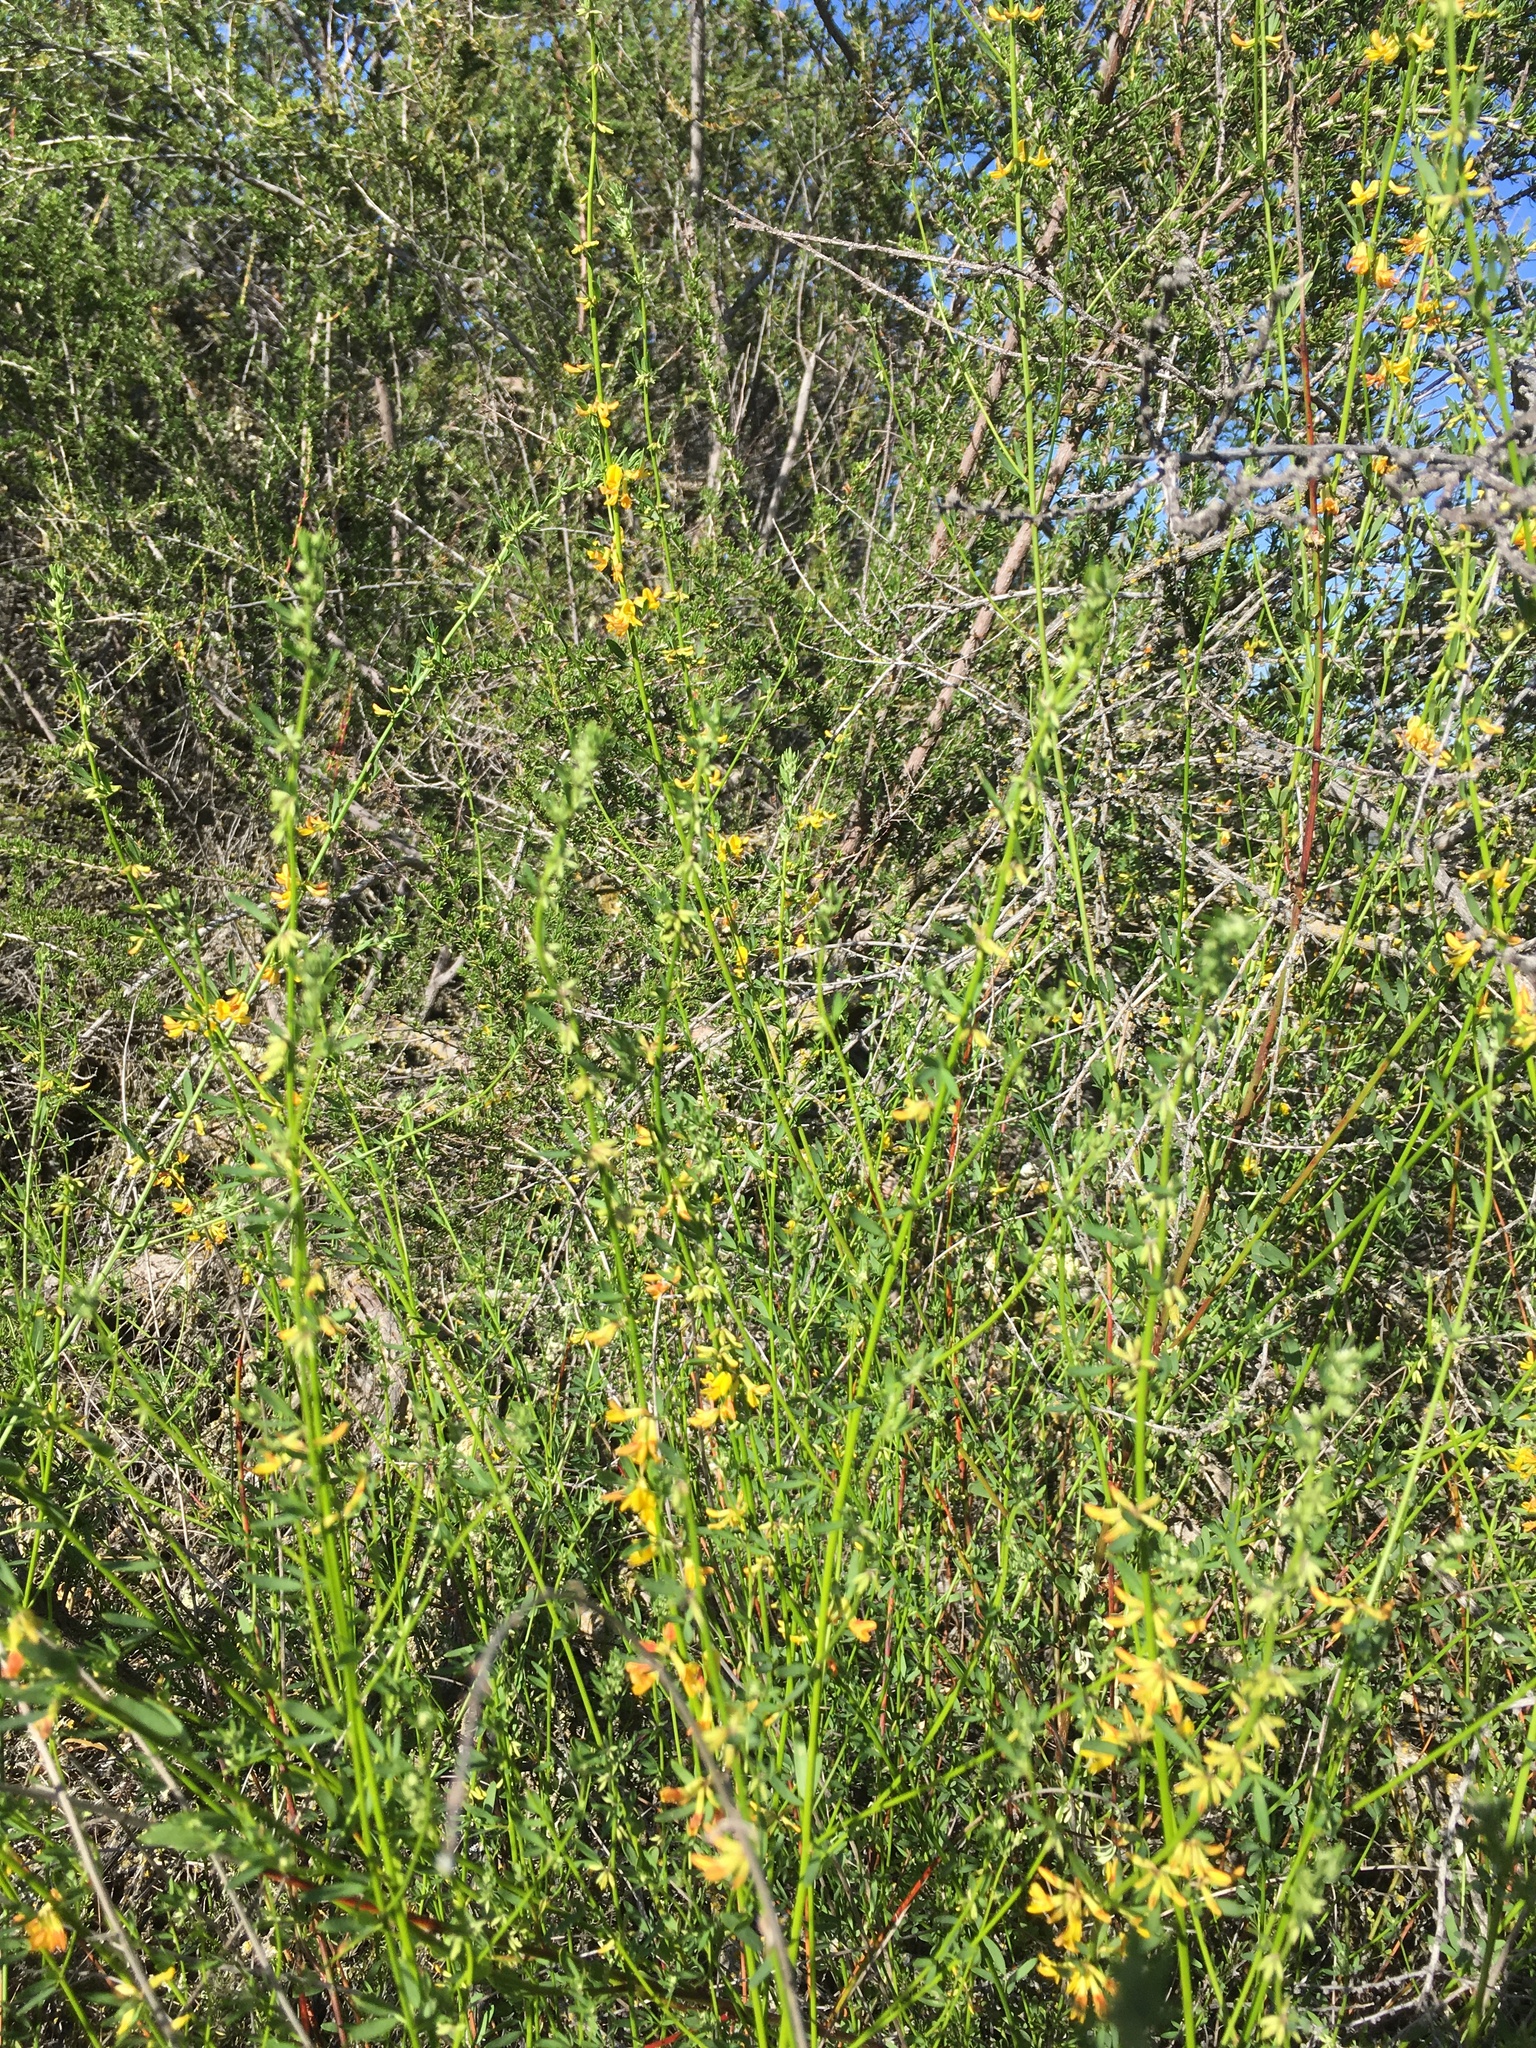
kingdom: Plantae
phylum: Tracheophyta
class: Magnoliopsida
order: Fabales
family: Fabaceae
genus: Acmispon
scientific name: Acmispon glaber
